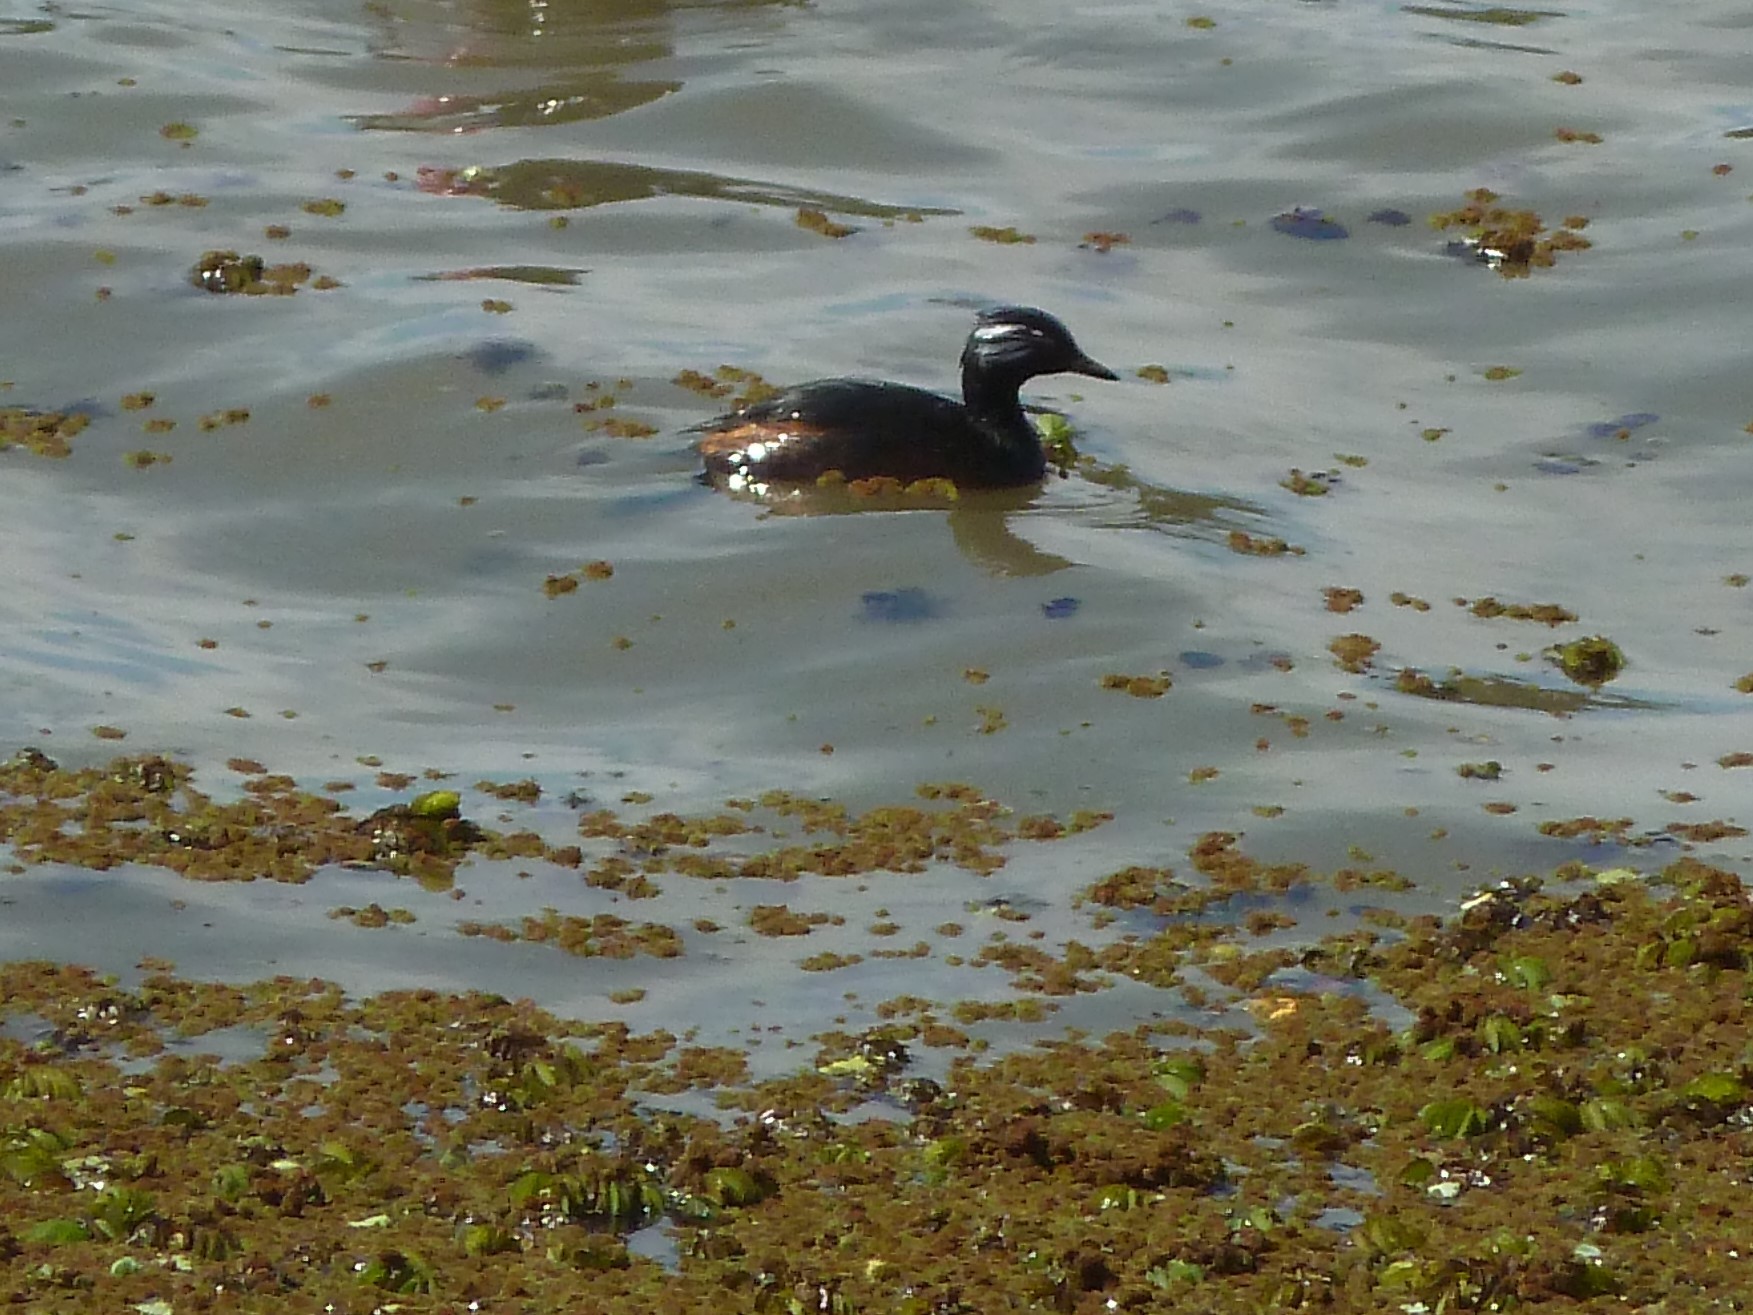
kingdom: Animalia
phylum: Chordata
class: Aves
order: Podicipediformes
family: Podicipedidae
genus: Rollandia
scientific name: Rollandia rolland
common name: White-tufted grebe
